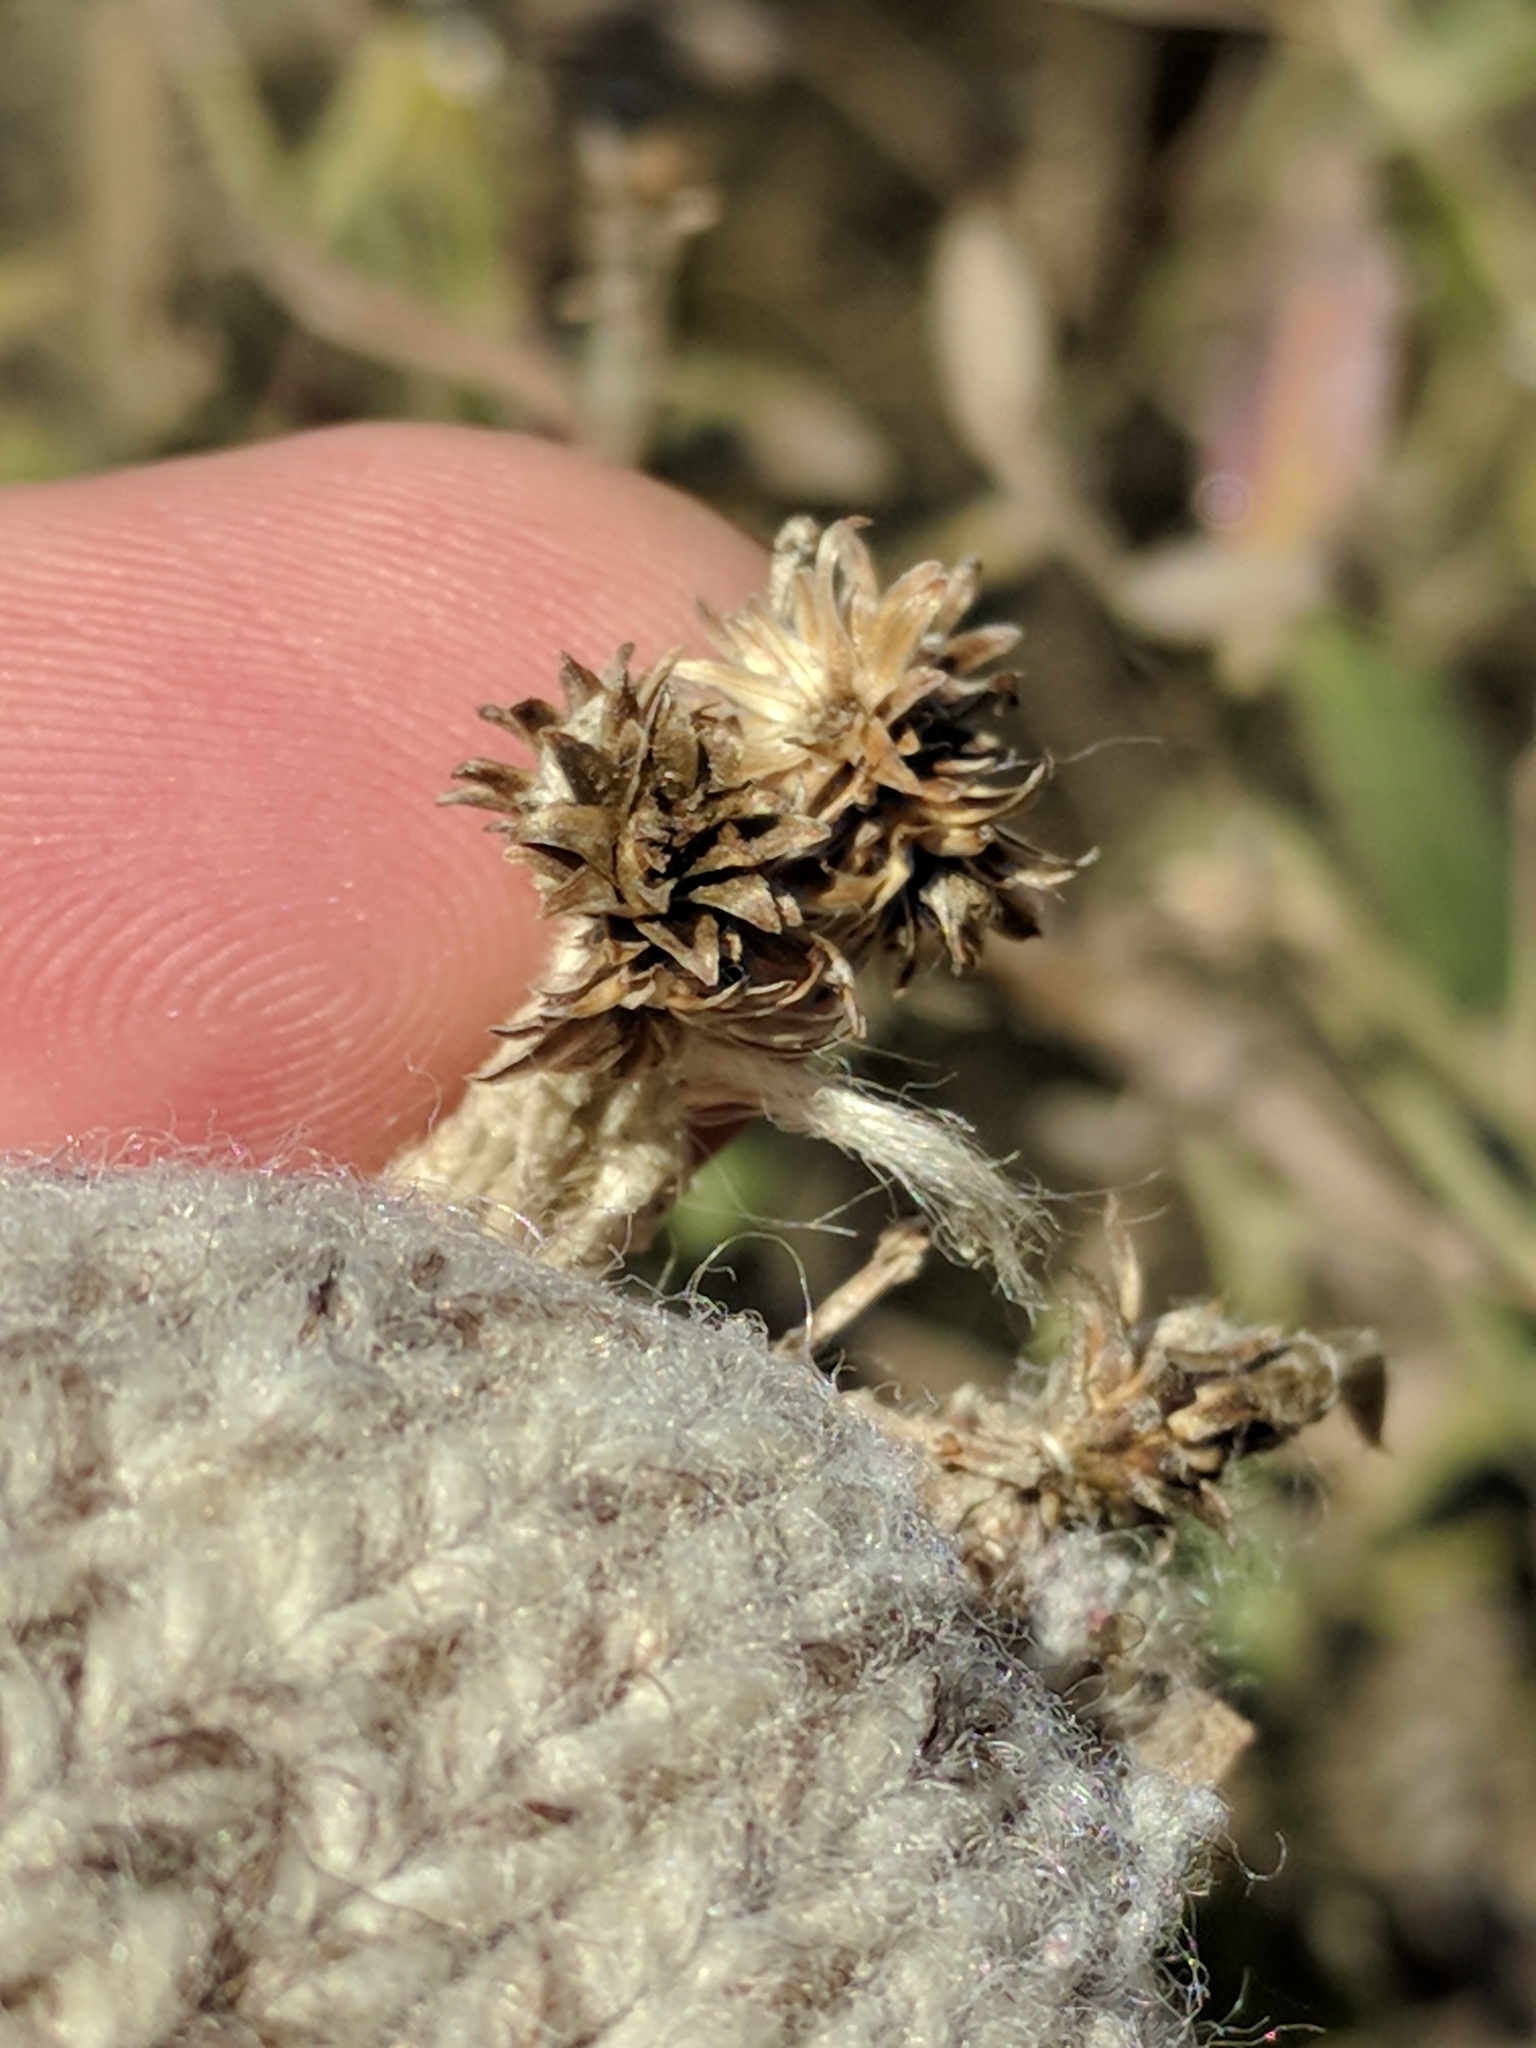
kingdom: Plantae
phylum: Tracheophyta
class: Magnoliopsida
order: Asterales
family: Asteraceae
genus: Baccharis
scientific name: Baccharis halimifolia
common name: Eastern baccharis
